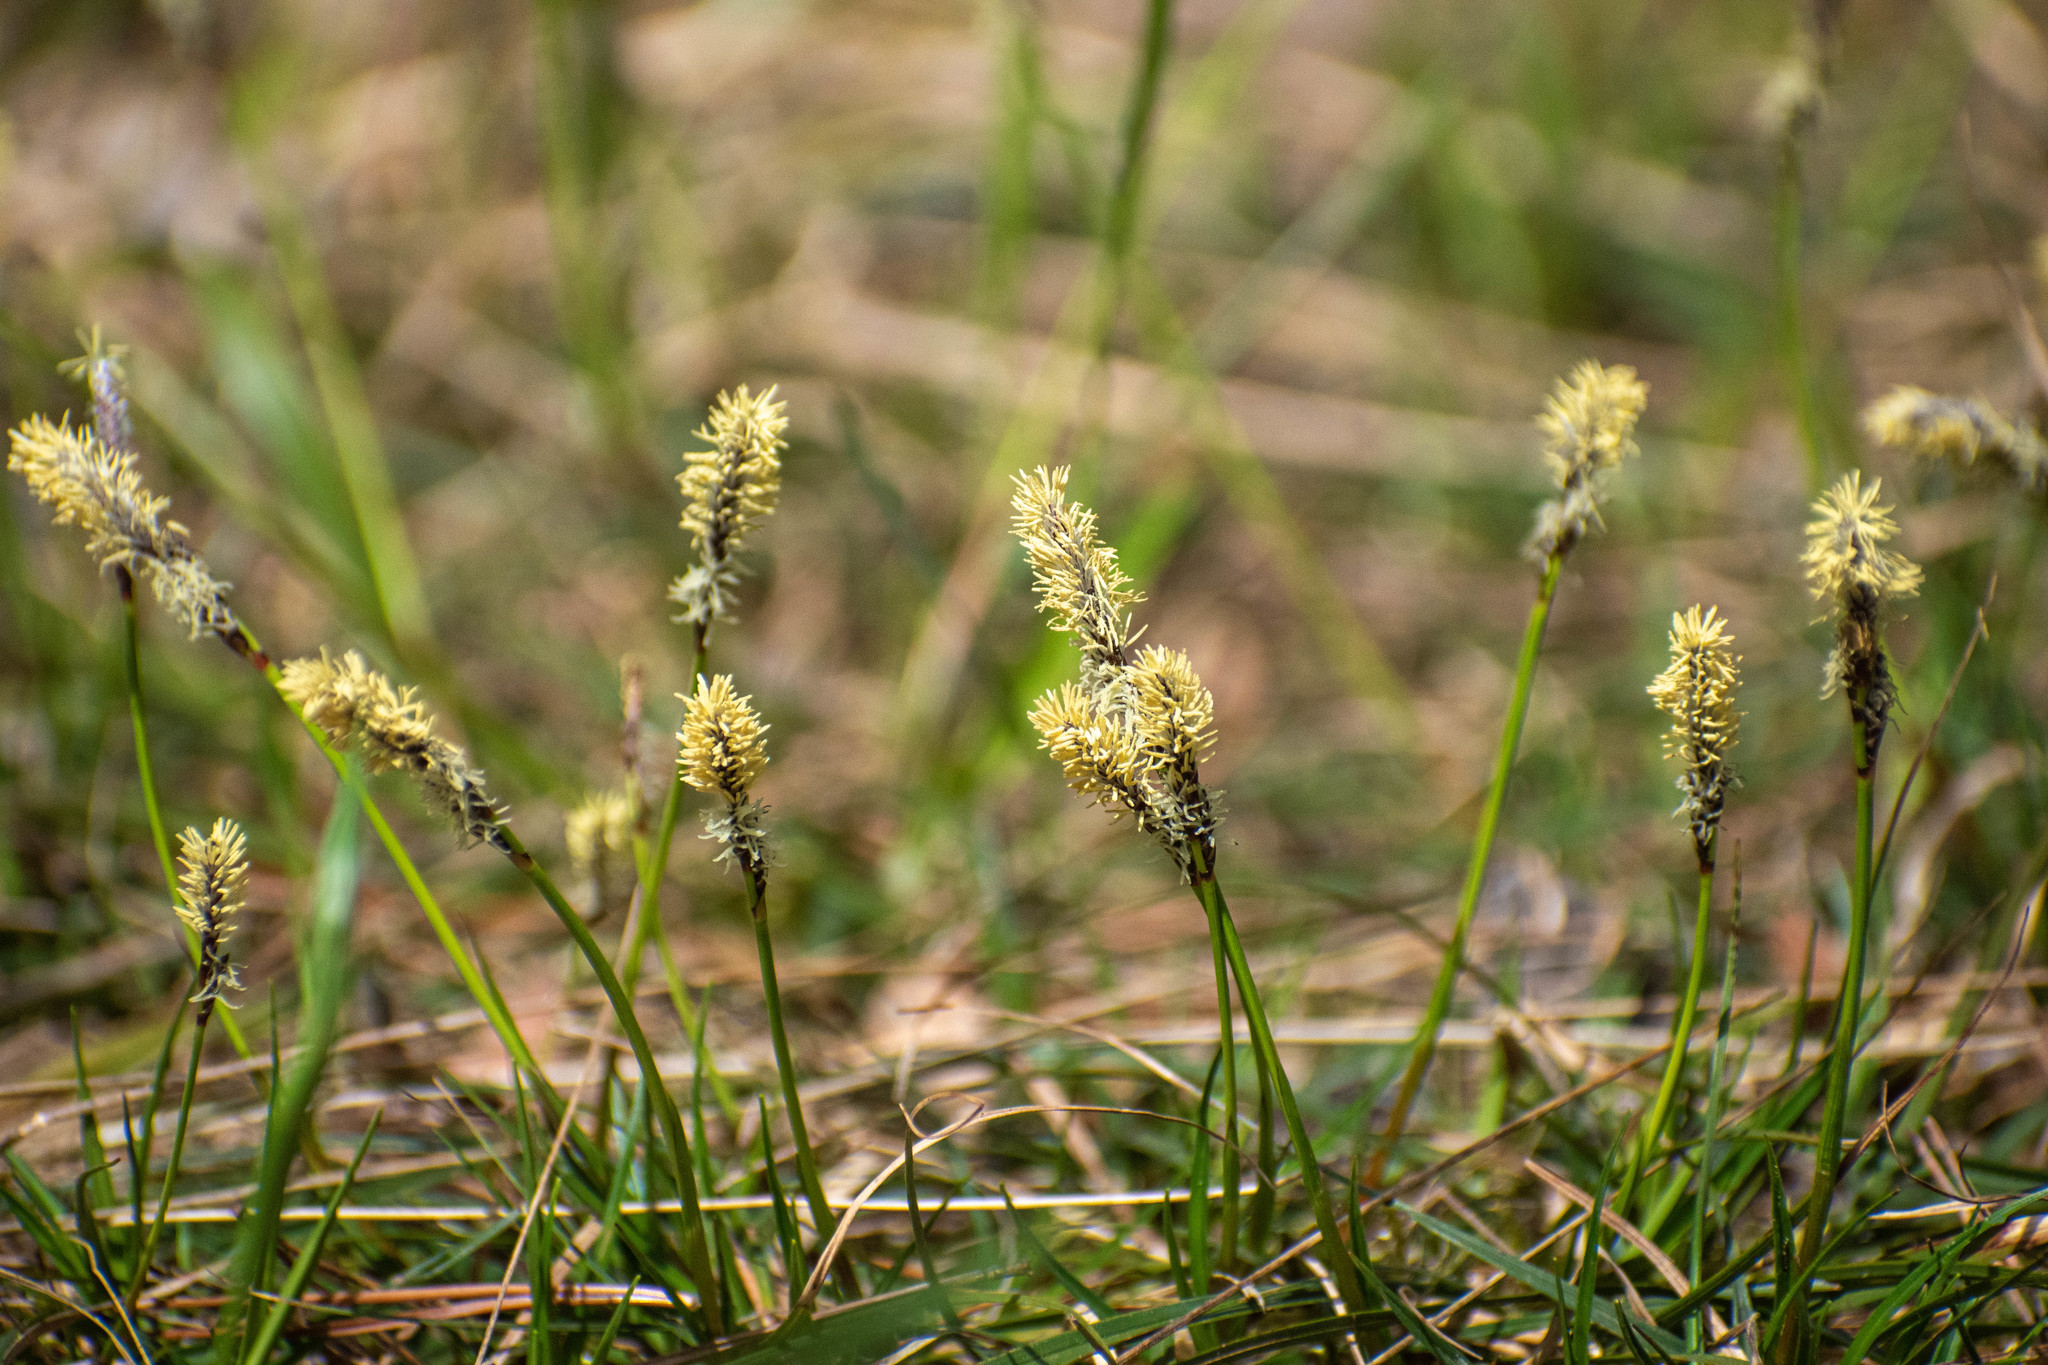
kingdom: Plantae
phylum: Tracheophyta
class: Liliopsida
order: Poales
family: Cyperaceae
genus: Carex
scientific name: Carex ericetorum
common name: Rare spring-sedge
